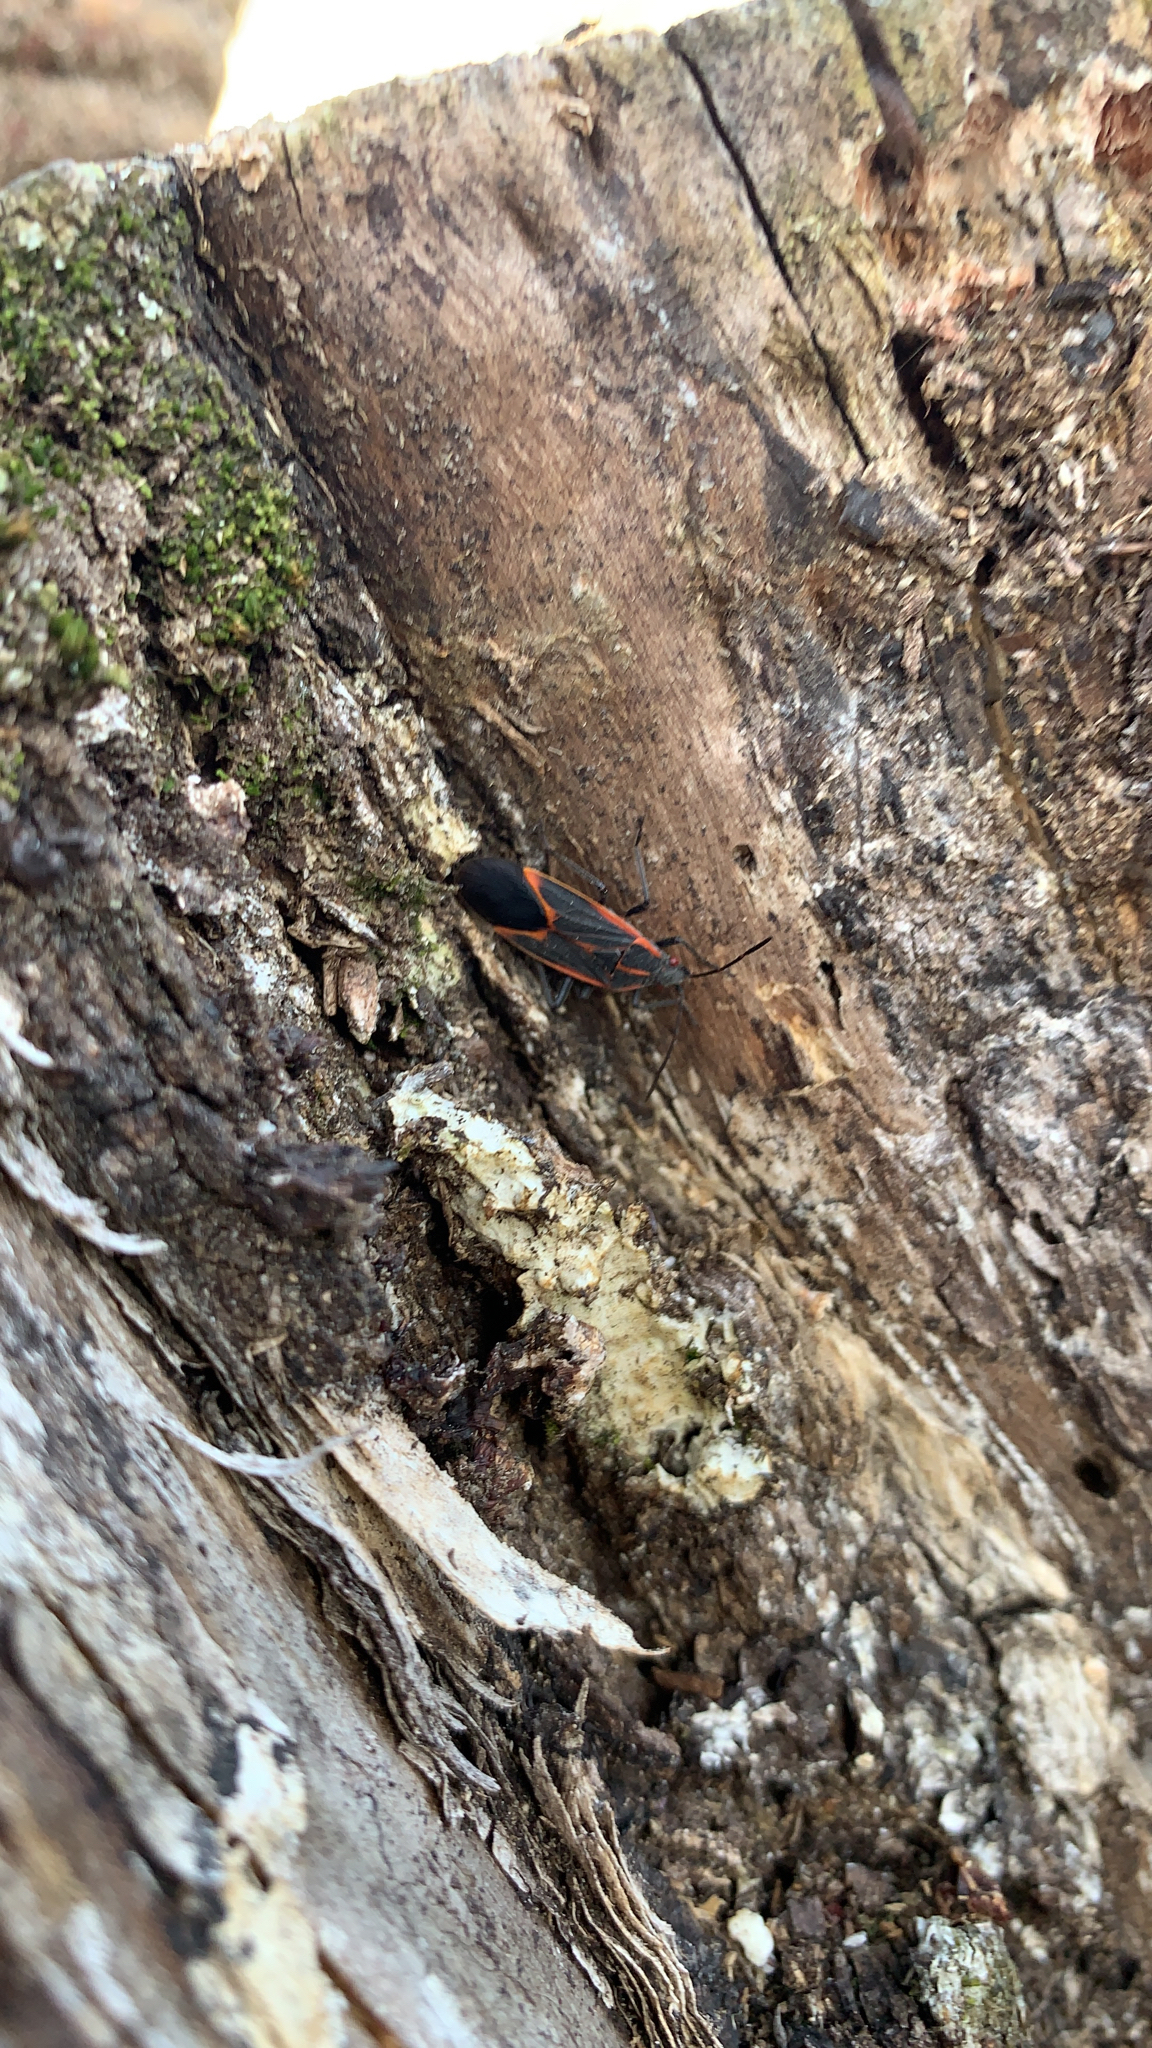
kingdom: Animalia
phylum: Arthropoda
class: Insecta
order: Hemiptera
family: Rhopalidae
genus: Boisea
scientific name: Boisea trivittata
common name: Boxelder bug
